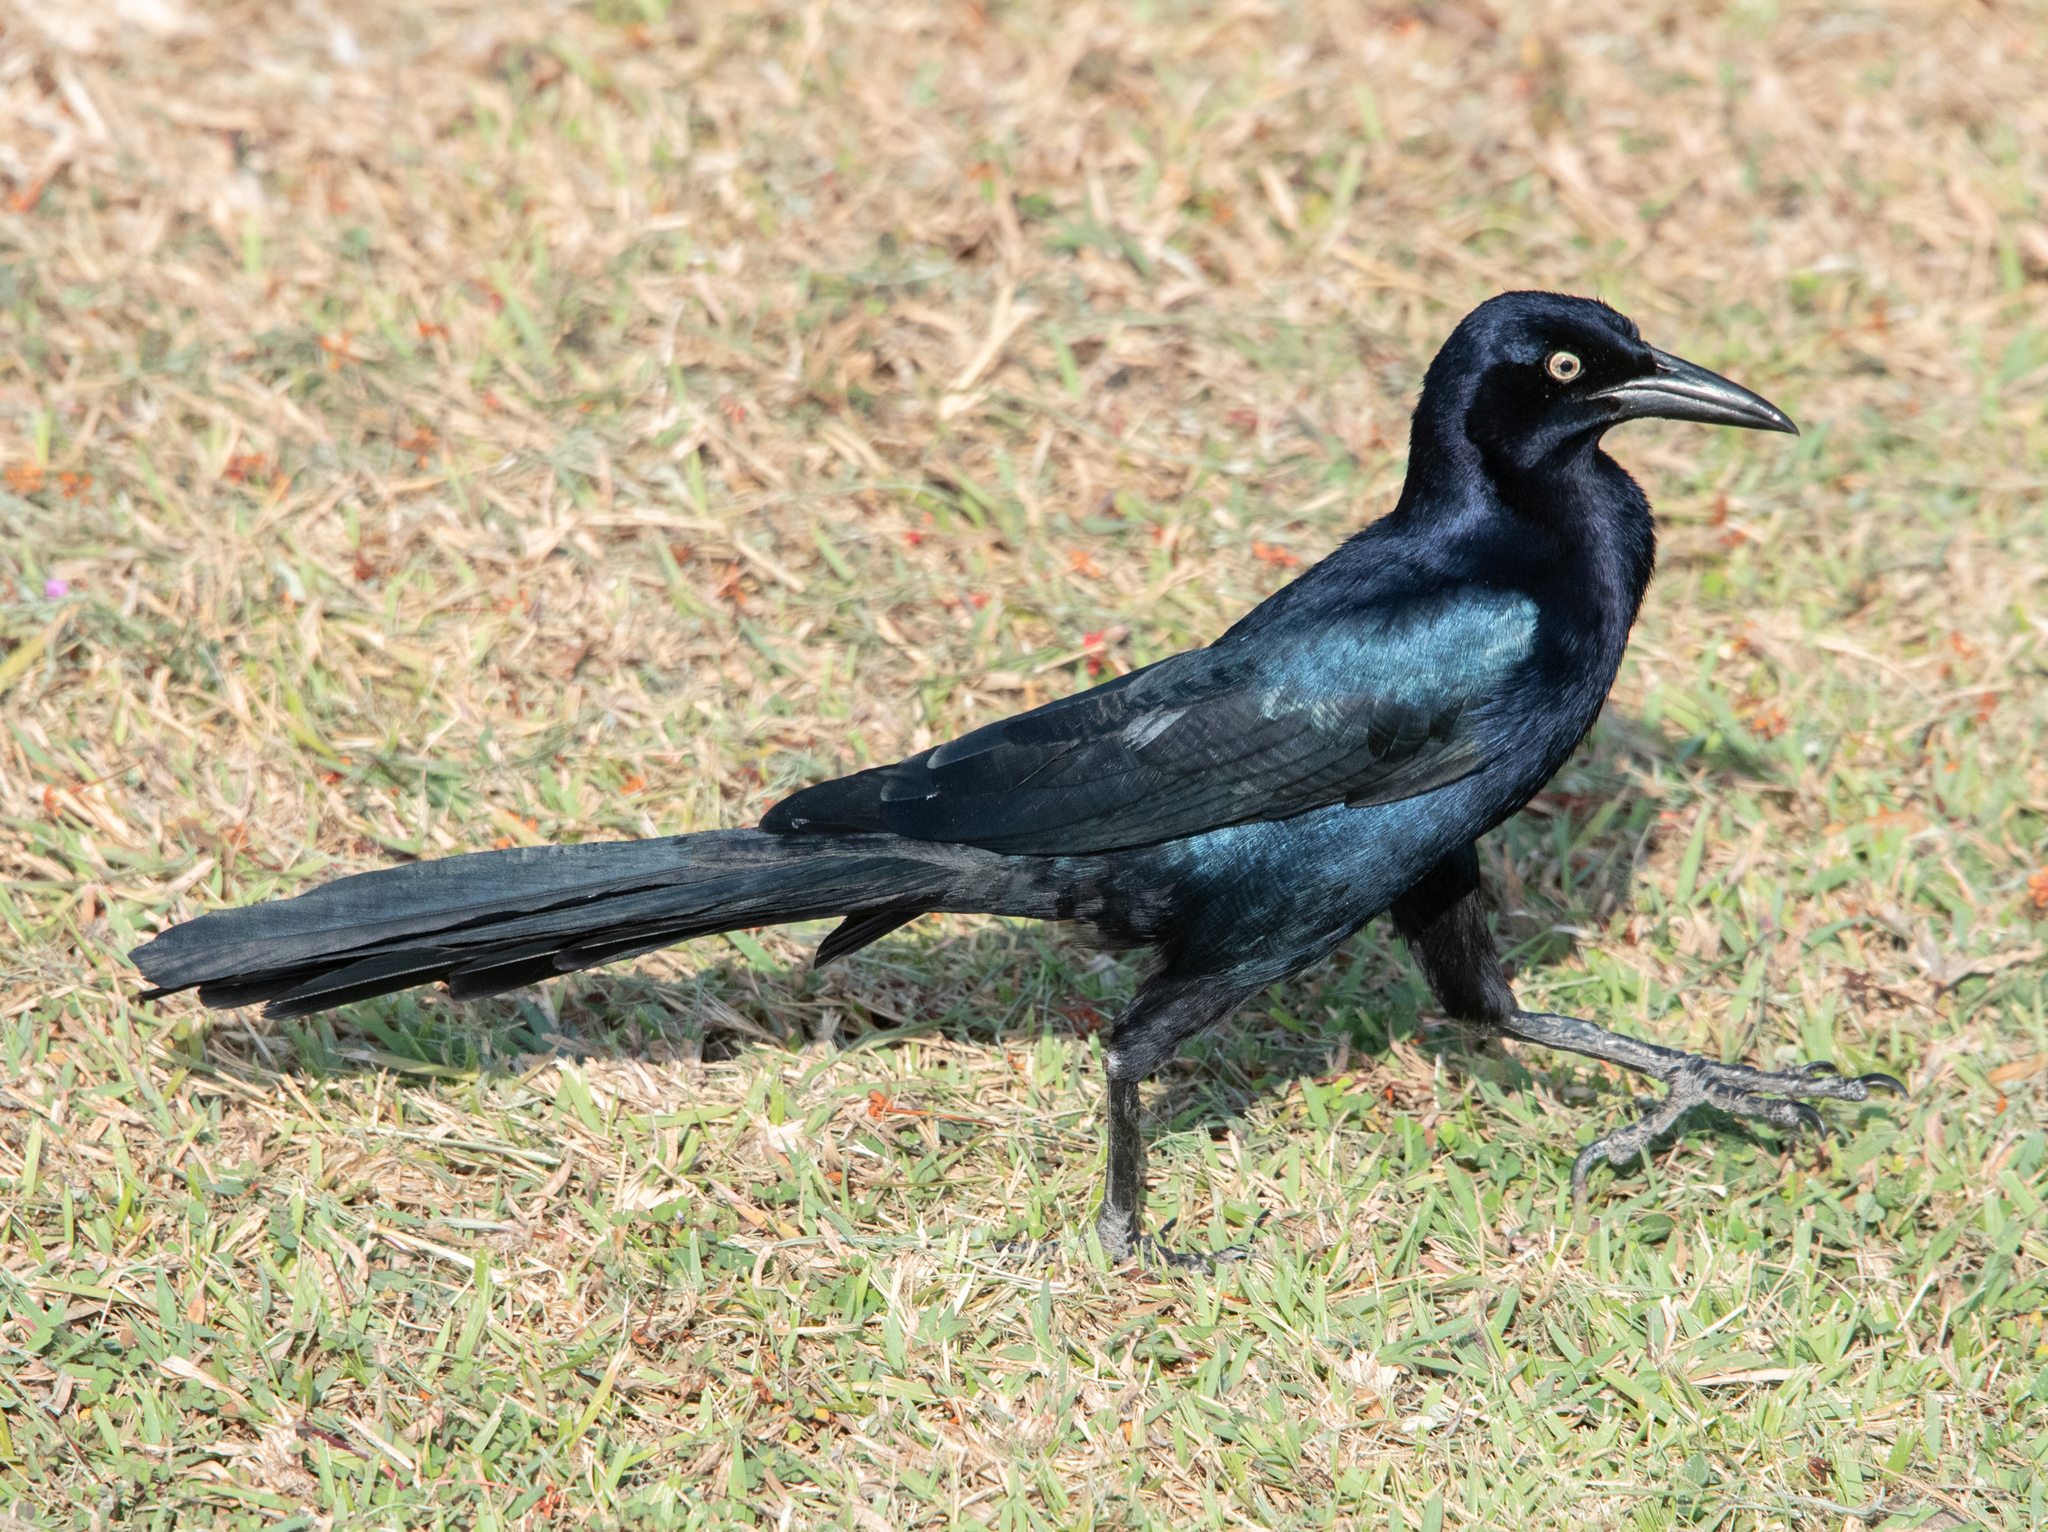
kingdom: Animalia
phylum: Chordata
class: Aves
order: Passeriformes
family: Icteridae
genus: Quiscalus
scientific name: Quiscalus mexicanus
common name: Great-tailed grackle
